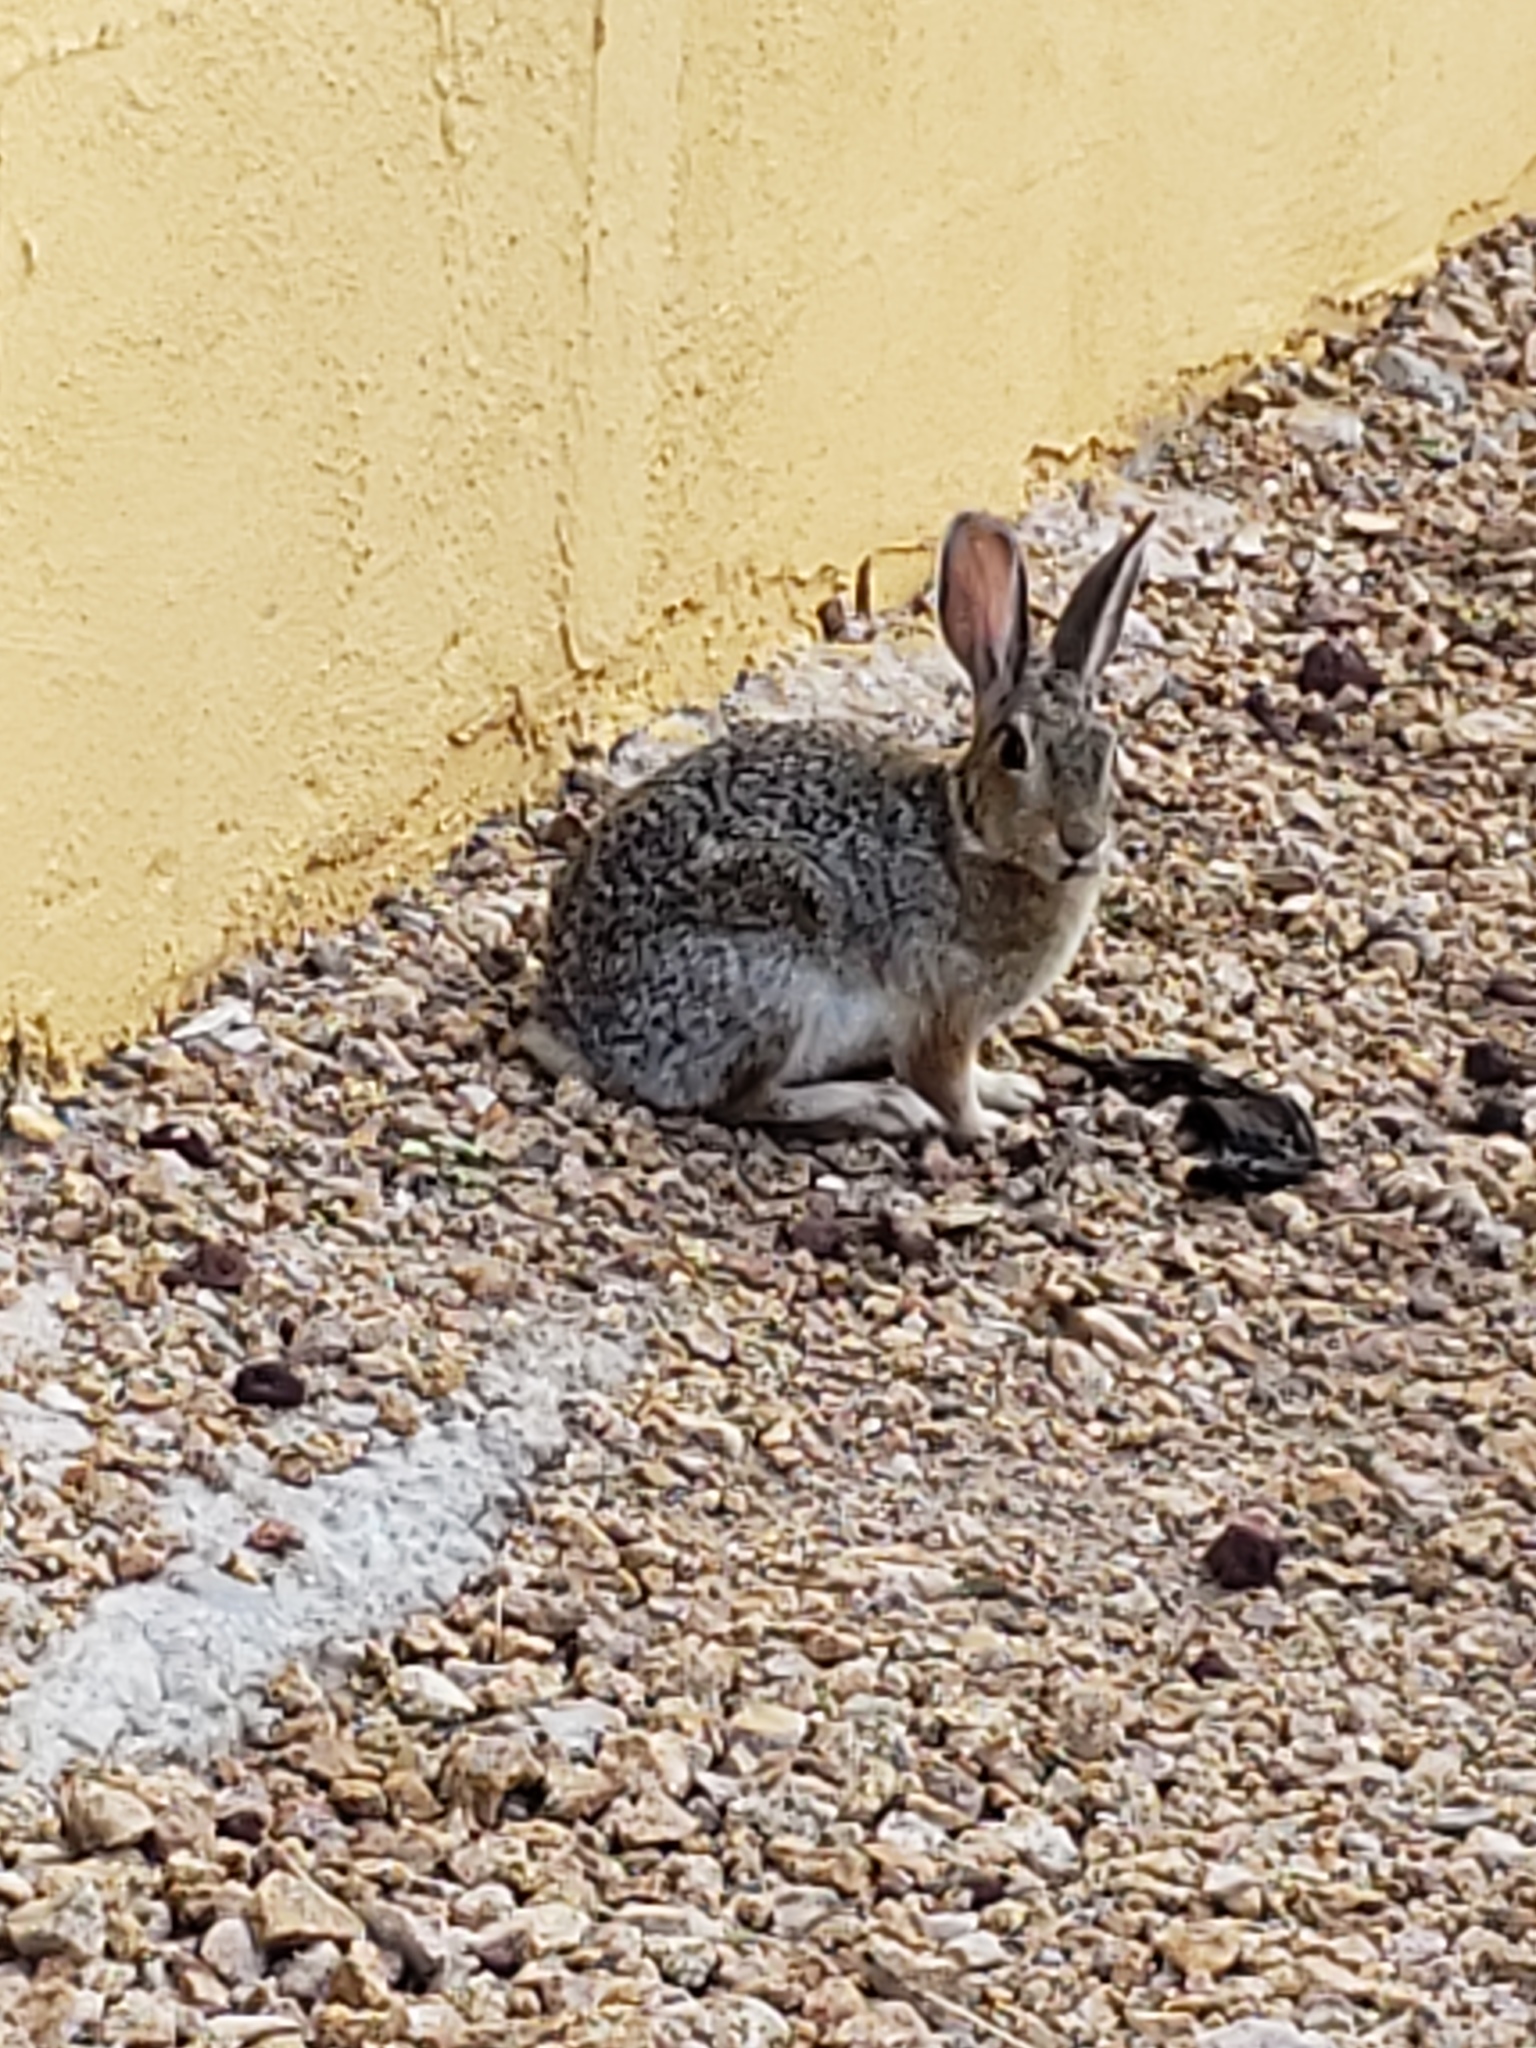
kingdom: Animalia
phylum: Chordata
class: Mammalia
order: Lagomorpha
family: Leporidae
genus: Sylvilagus
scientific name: Sylvilagus audubonii
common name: Desert cottontail
